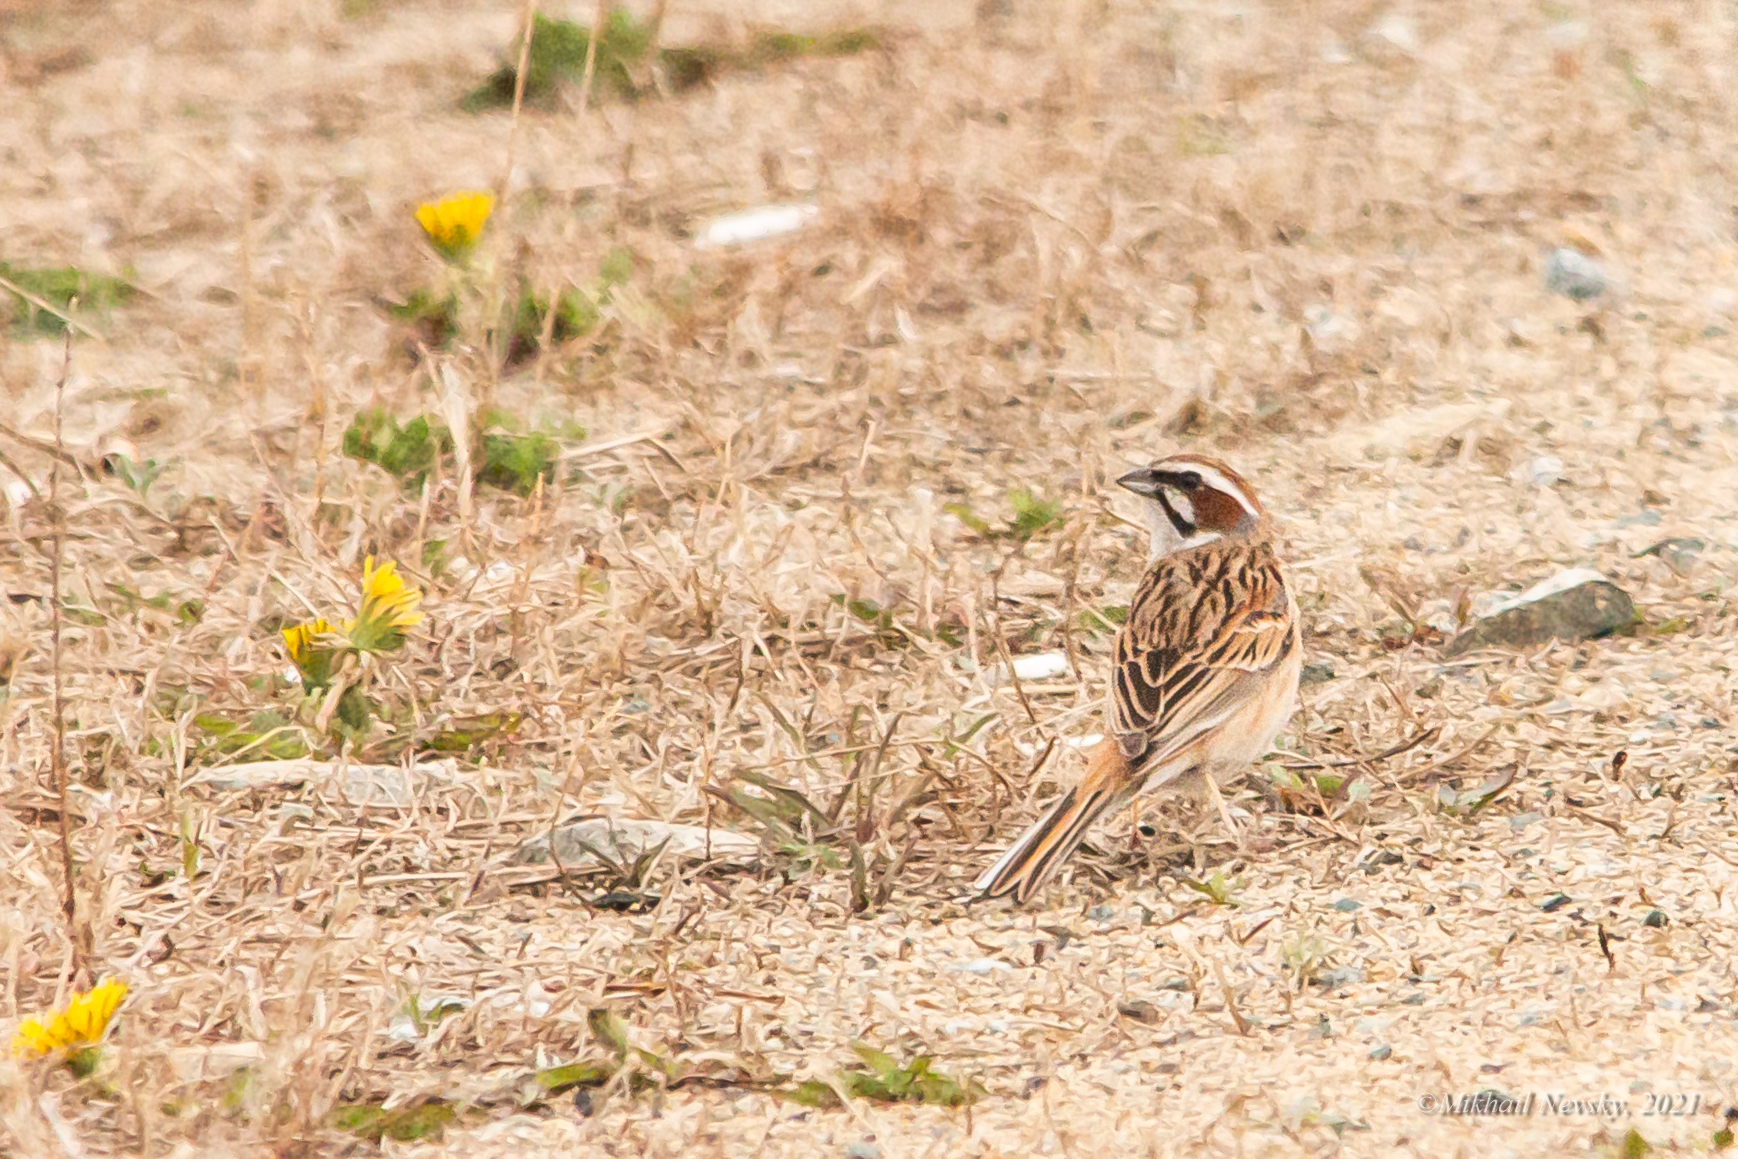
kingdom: Animalia
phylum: Chordata
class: Aves
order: Passeriformes
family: Emberizidae
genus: Emberiza
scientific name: Emberiza cioides
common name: Meadow bunting
